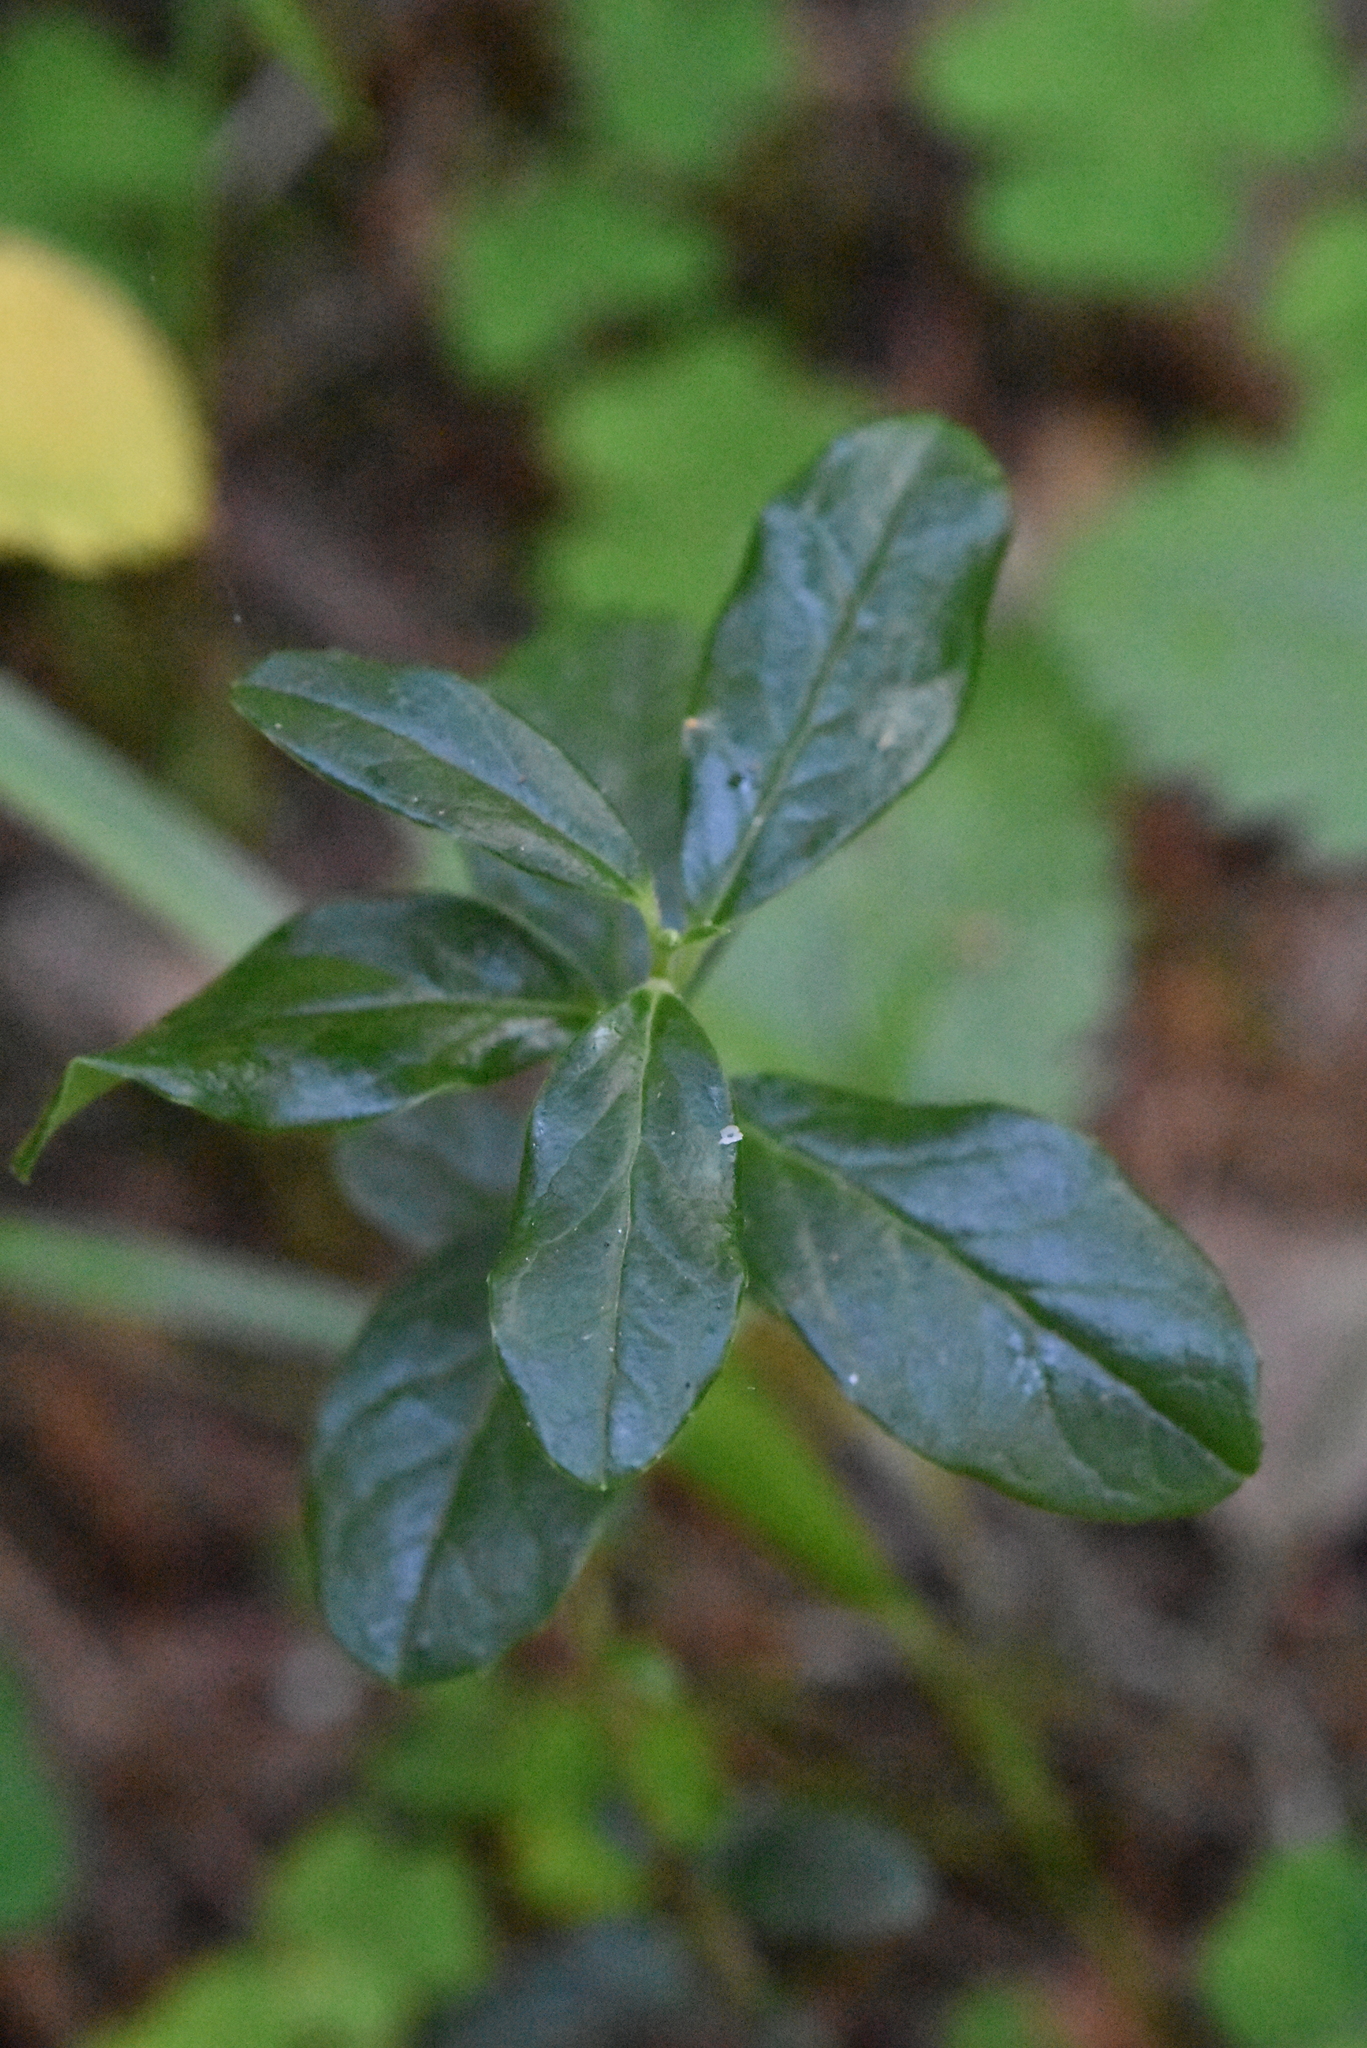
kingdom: Plantae
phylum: Tracheophyta
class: Magnoliopsida
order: Ericales
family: Ericaceae
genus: Vaccinium
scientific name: Vaccinium vitis-idaea
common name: Cowberry
